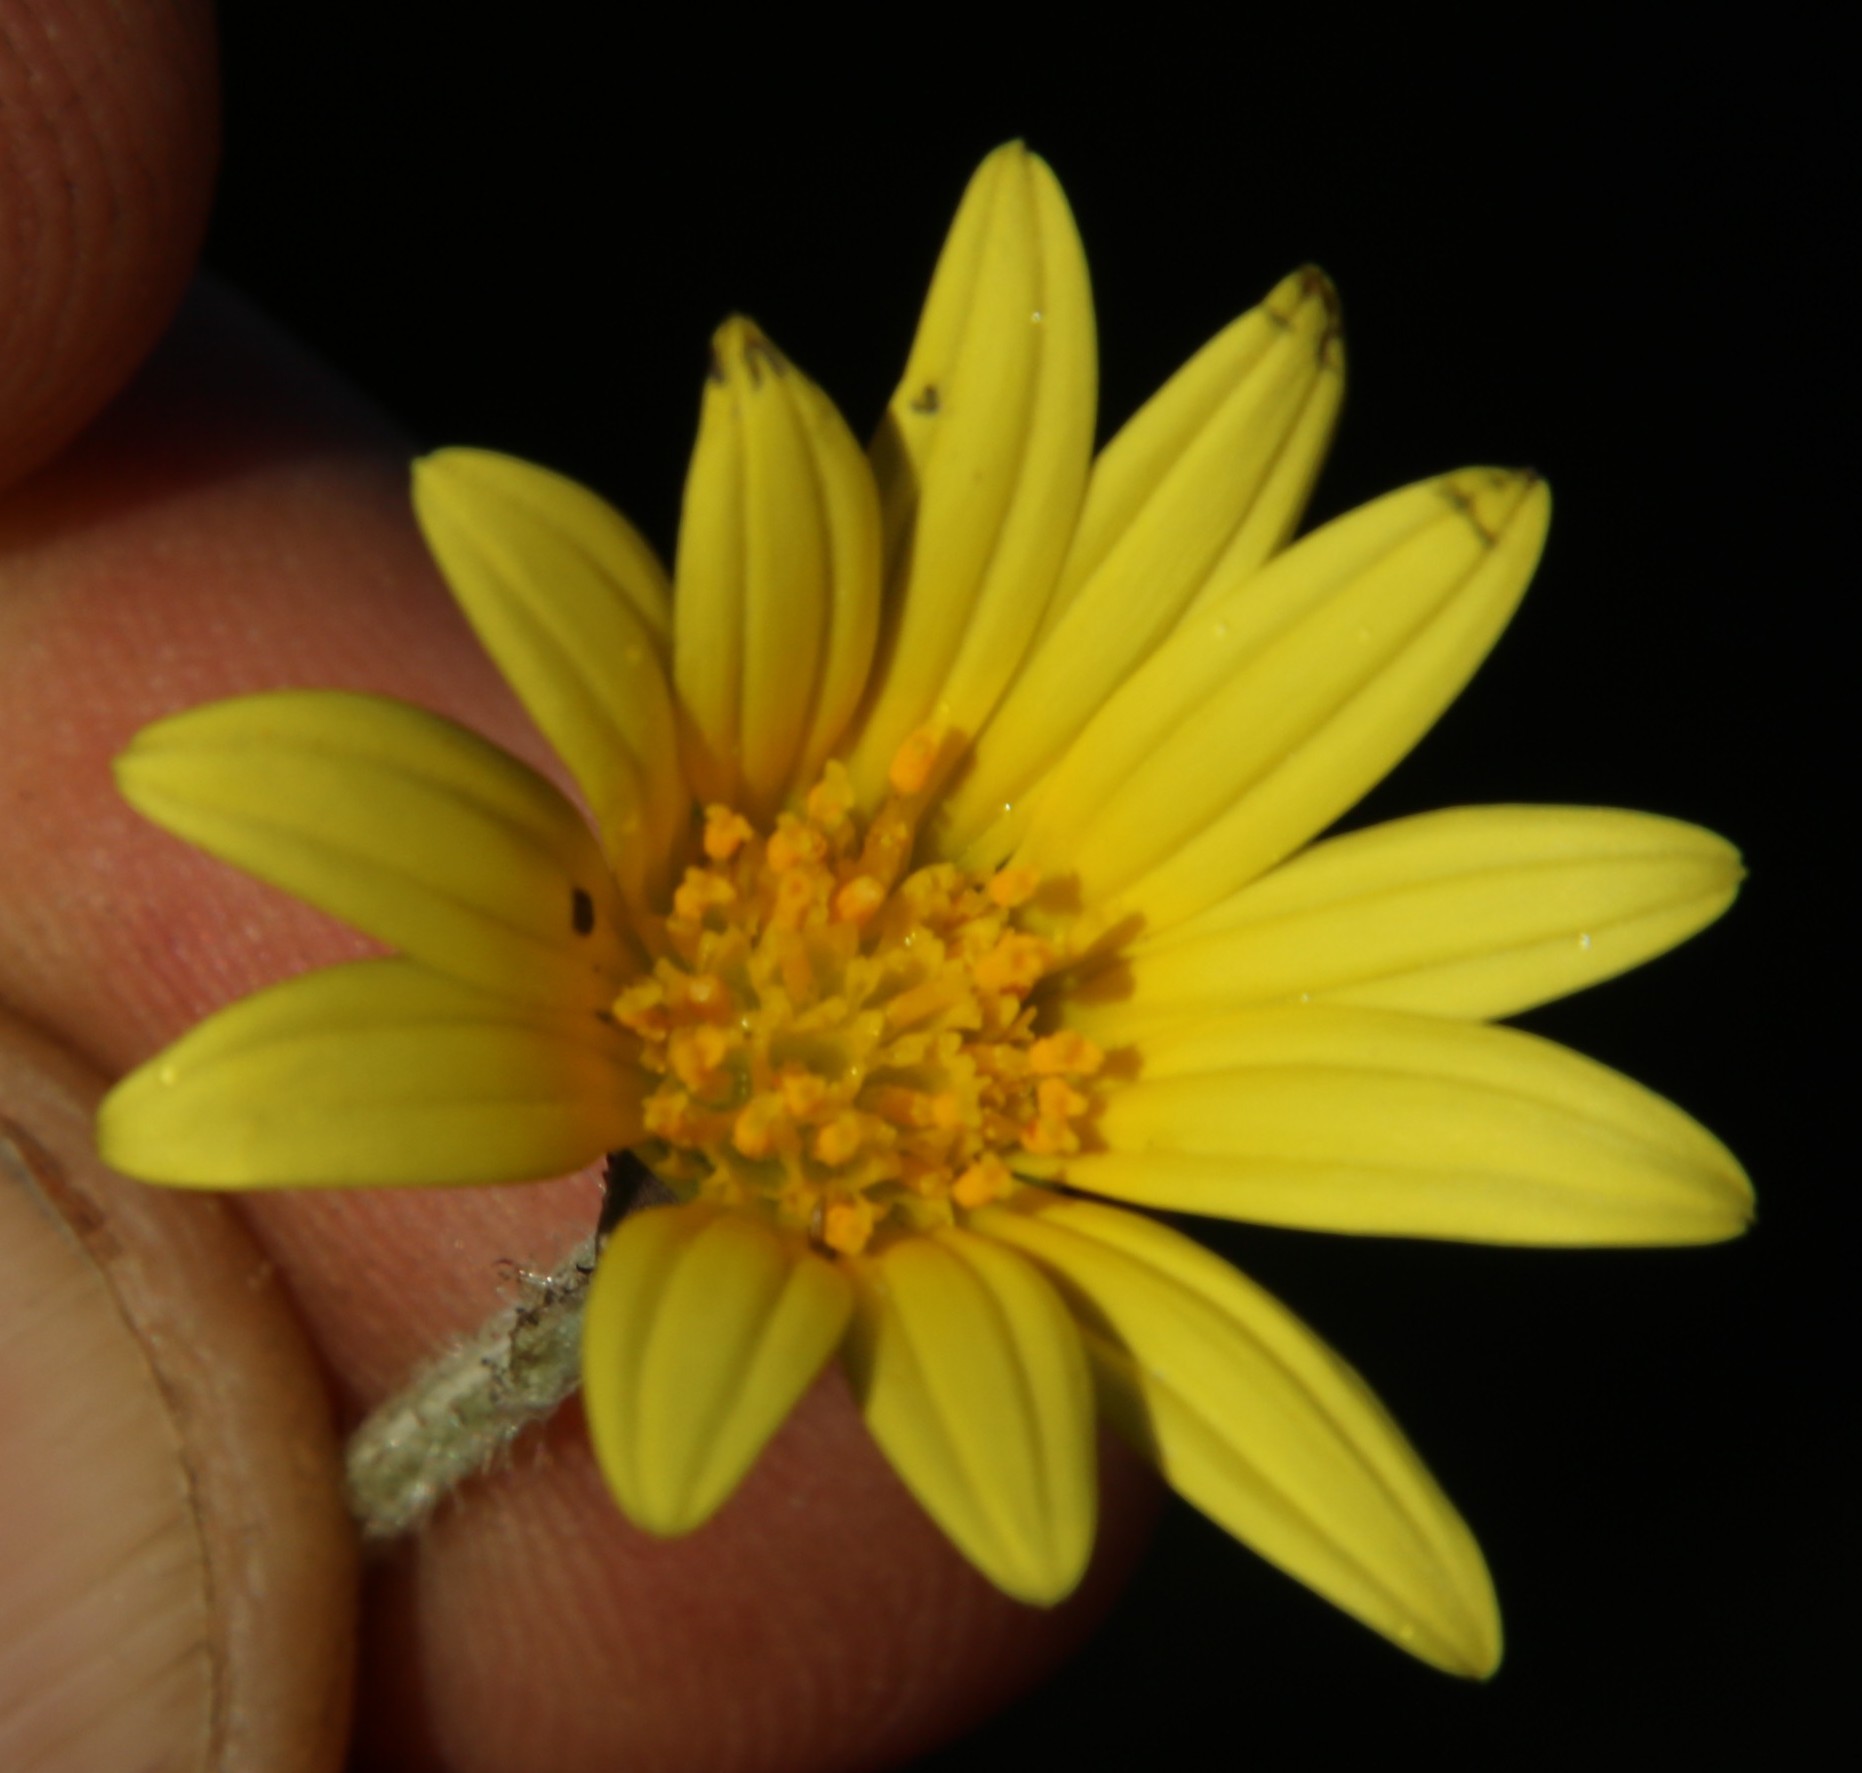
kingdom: Plantae
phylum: Tracheophyta
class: Magnoliopsida
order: Asterales
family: Asteraceae
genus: Arctotheca
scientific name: Arctotheca prostrata
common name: Capeweed
